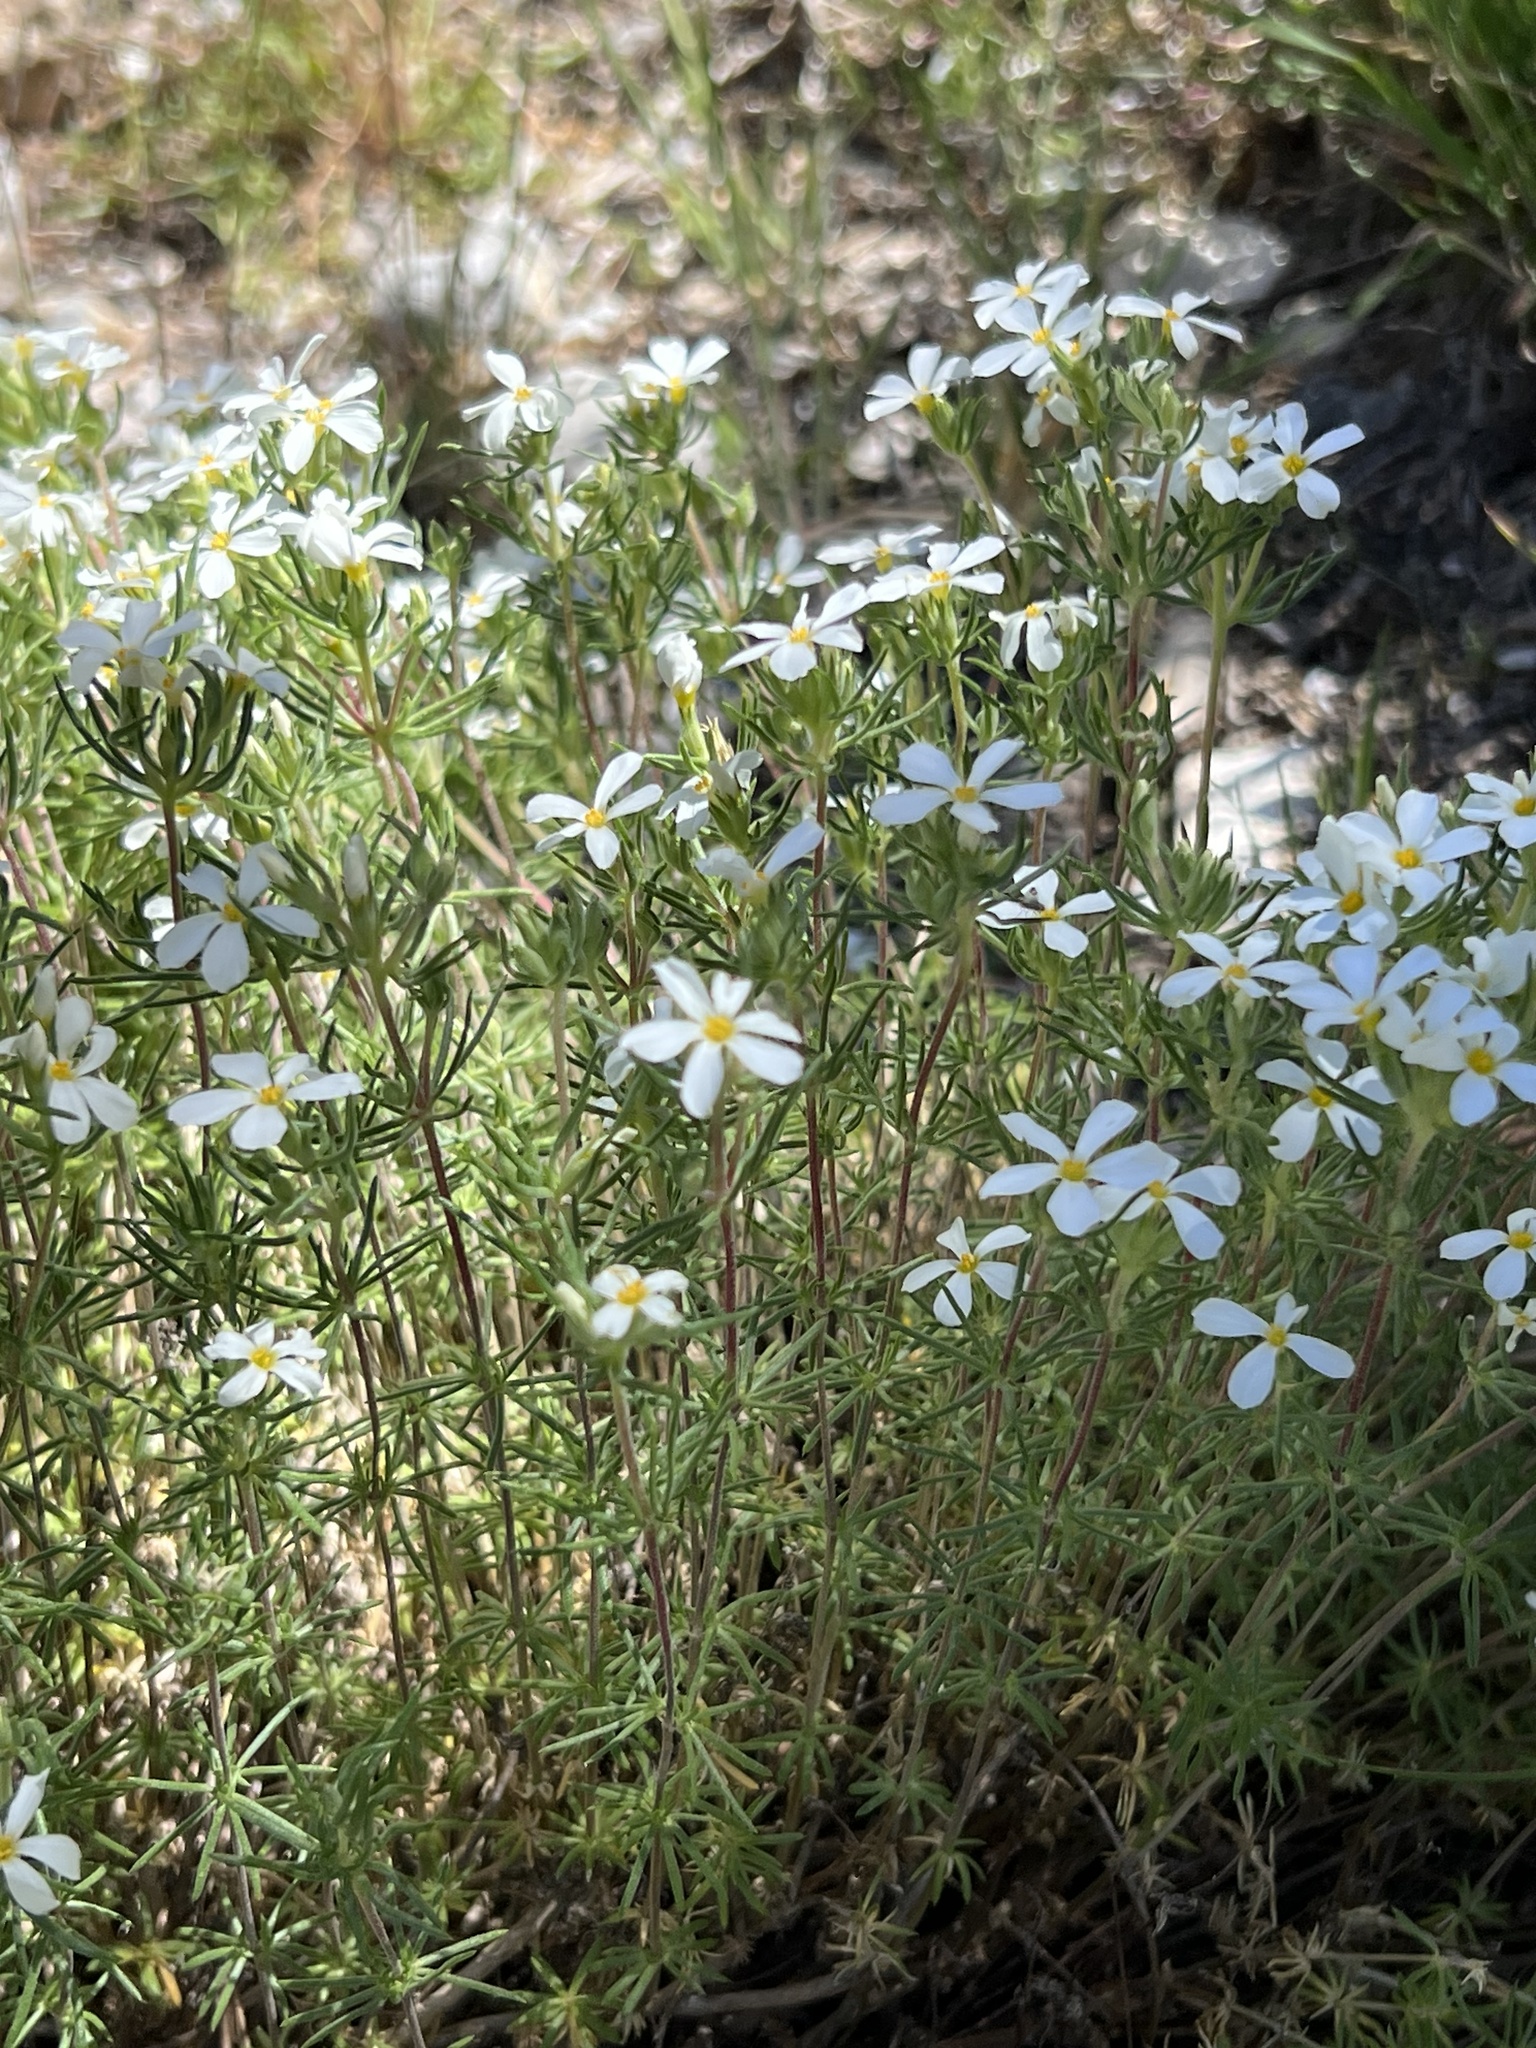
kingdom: Plantae
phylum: Tracheophyta
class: Magnoliopsida
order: Ericales
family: Polemoniaceae
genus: Leptosiphon
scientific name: Leptosiphon nuttallii
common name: Nuttall's linanthus
